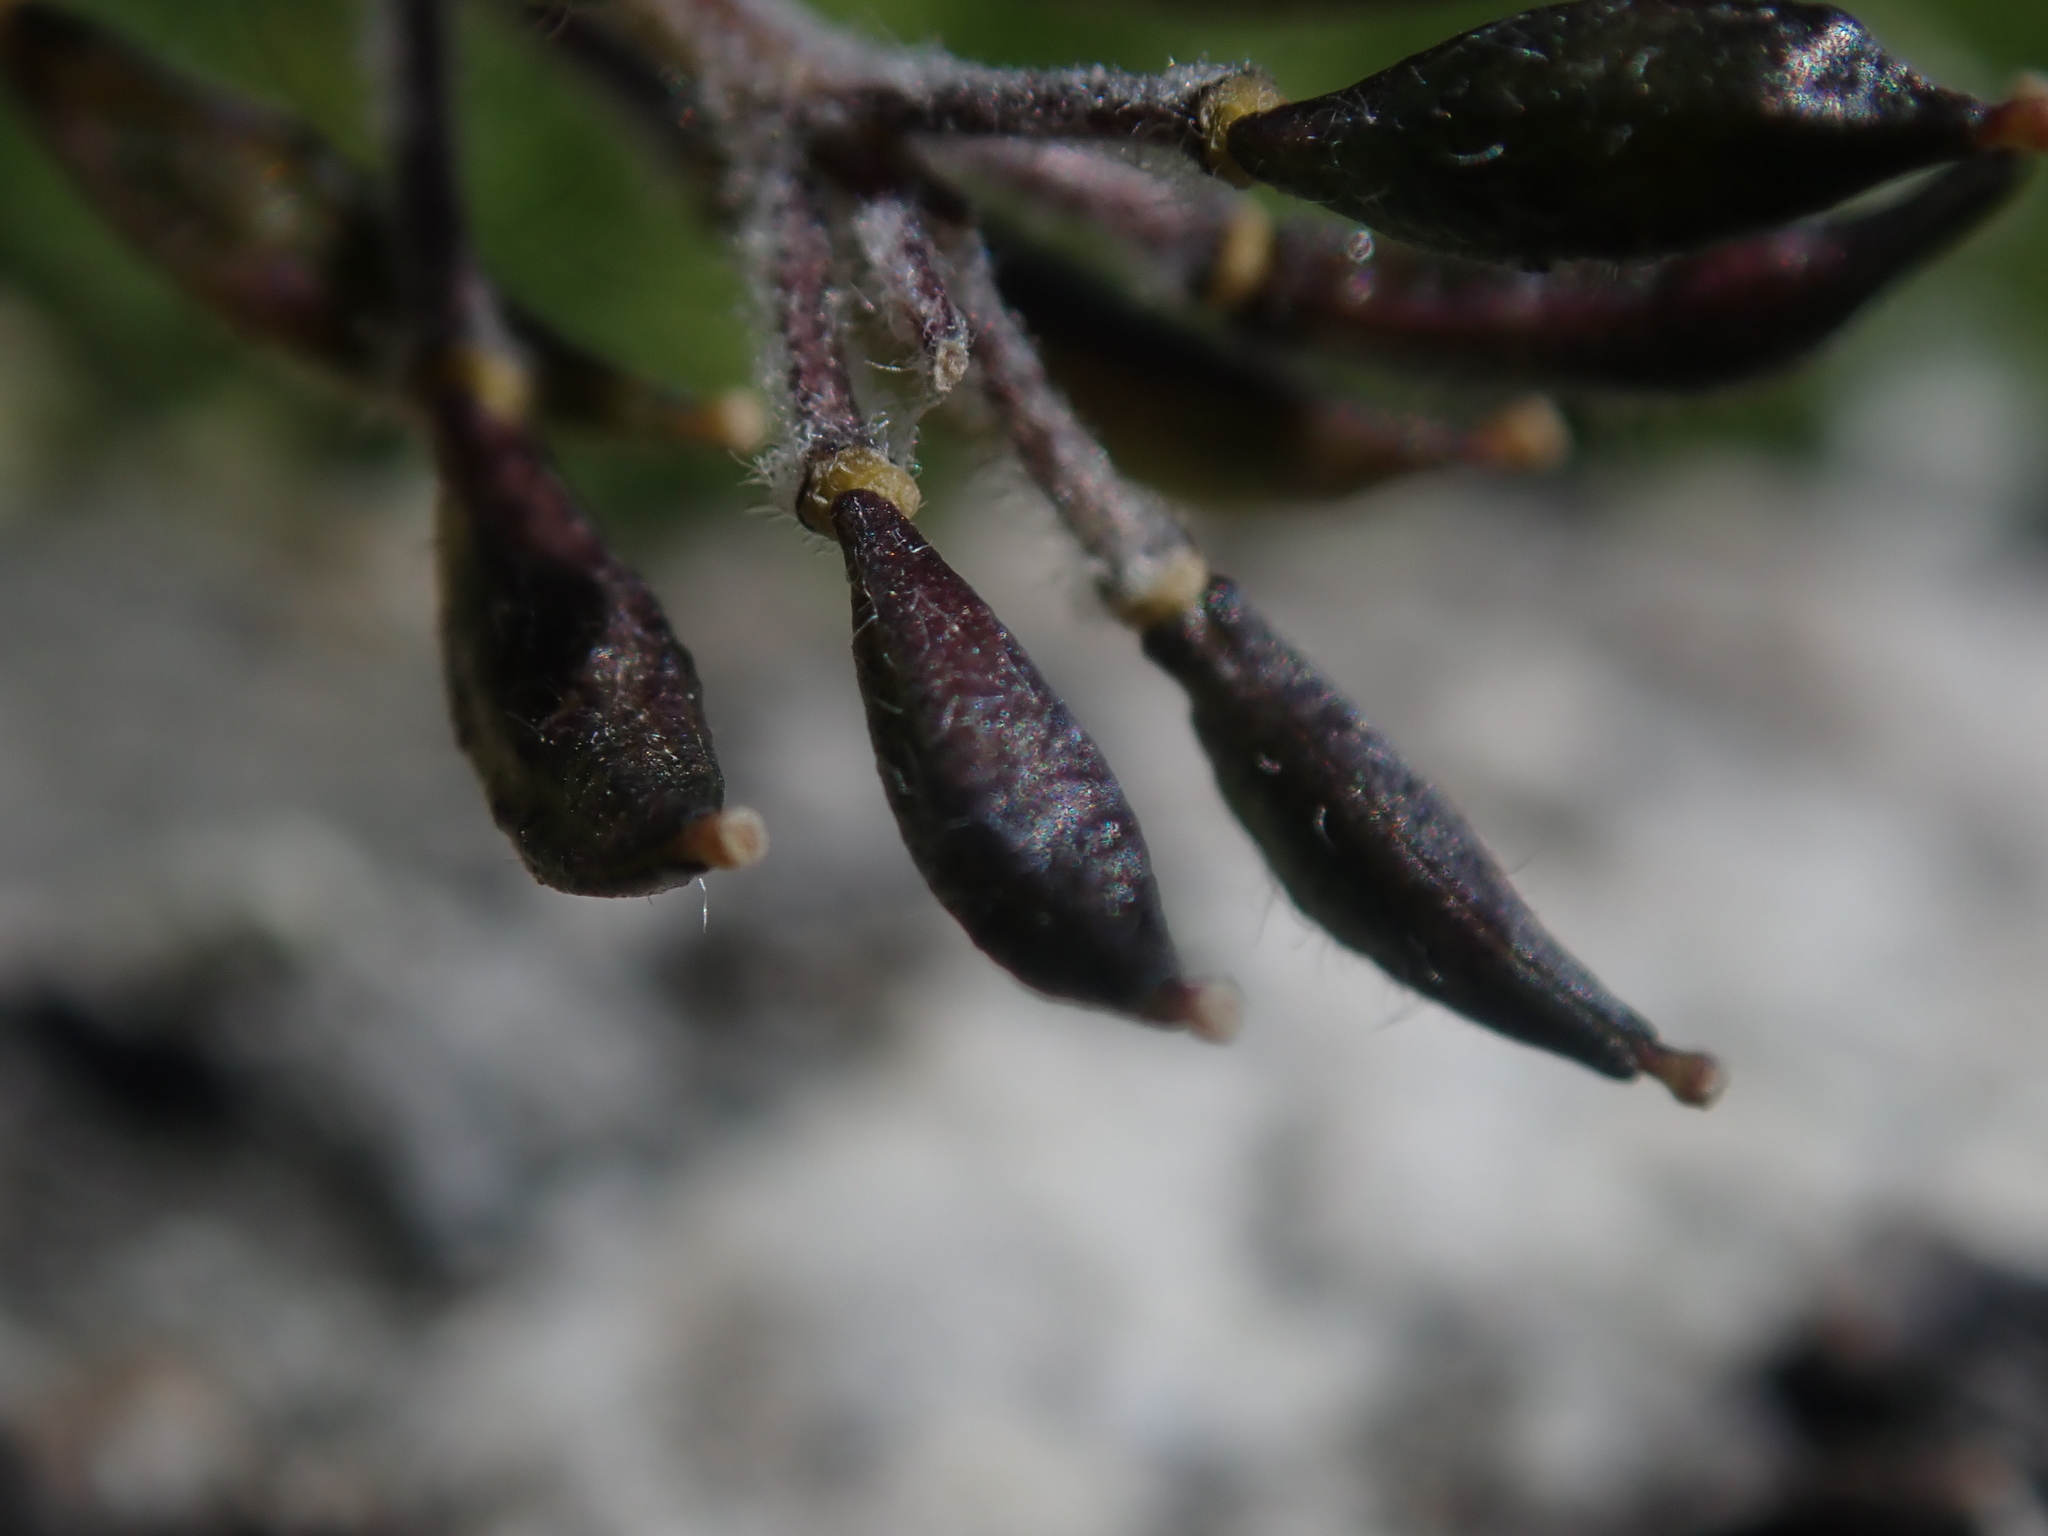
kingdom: Plantae
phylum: Tracheophyta
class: Magnoliopsida
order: Brassicales
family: Brassicaceae
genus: Smelowskia
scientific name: Smelowskia americana
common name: American false candytuft
